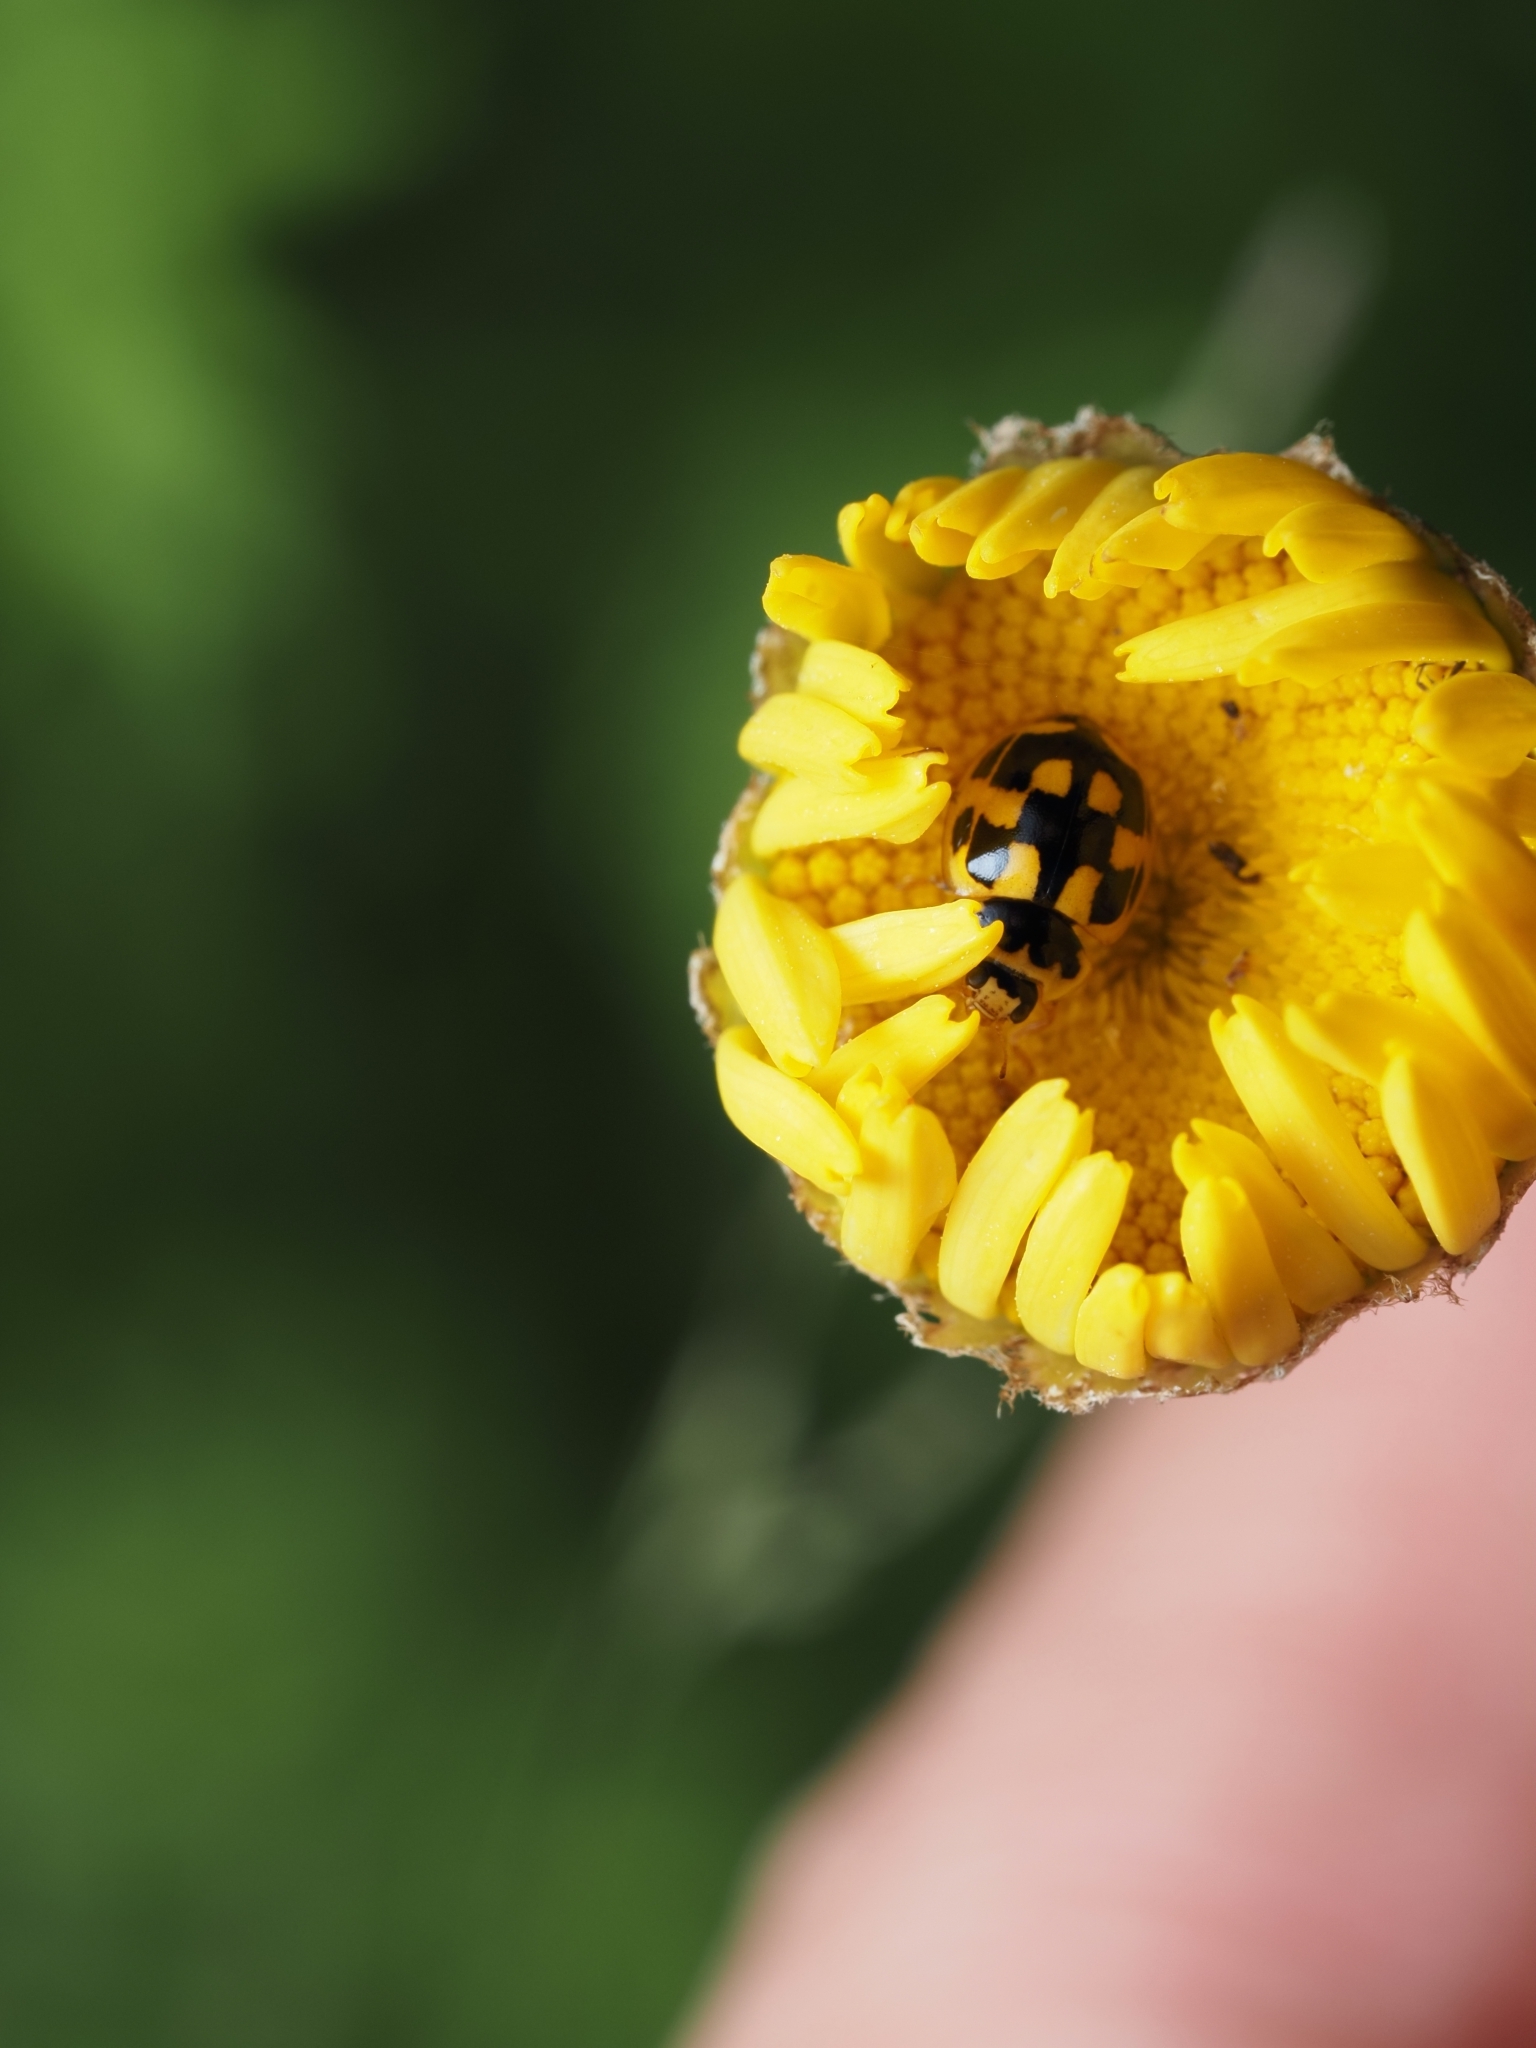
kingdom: Animalia
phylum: Arthropoda
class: Insecta
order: Coleoptera
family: Coccinellidae
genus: Propylaea
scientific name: Propylaea quatuordecimpunctata
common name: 14-spotted ladybird beetle
